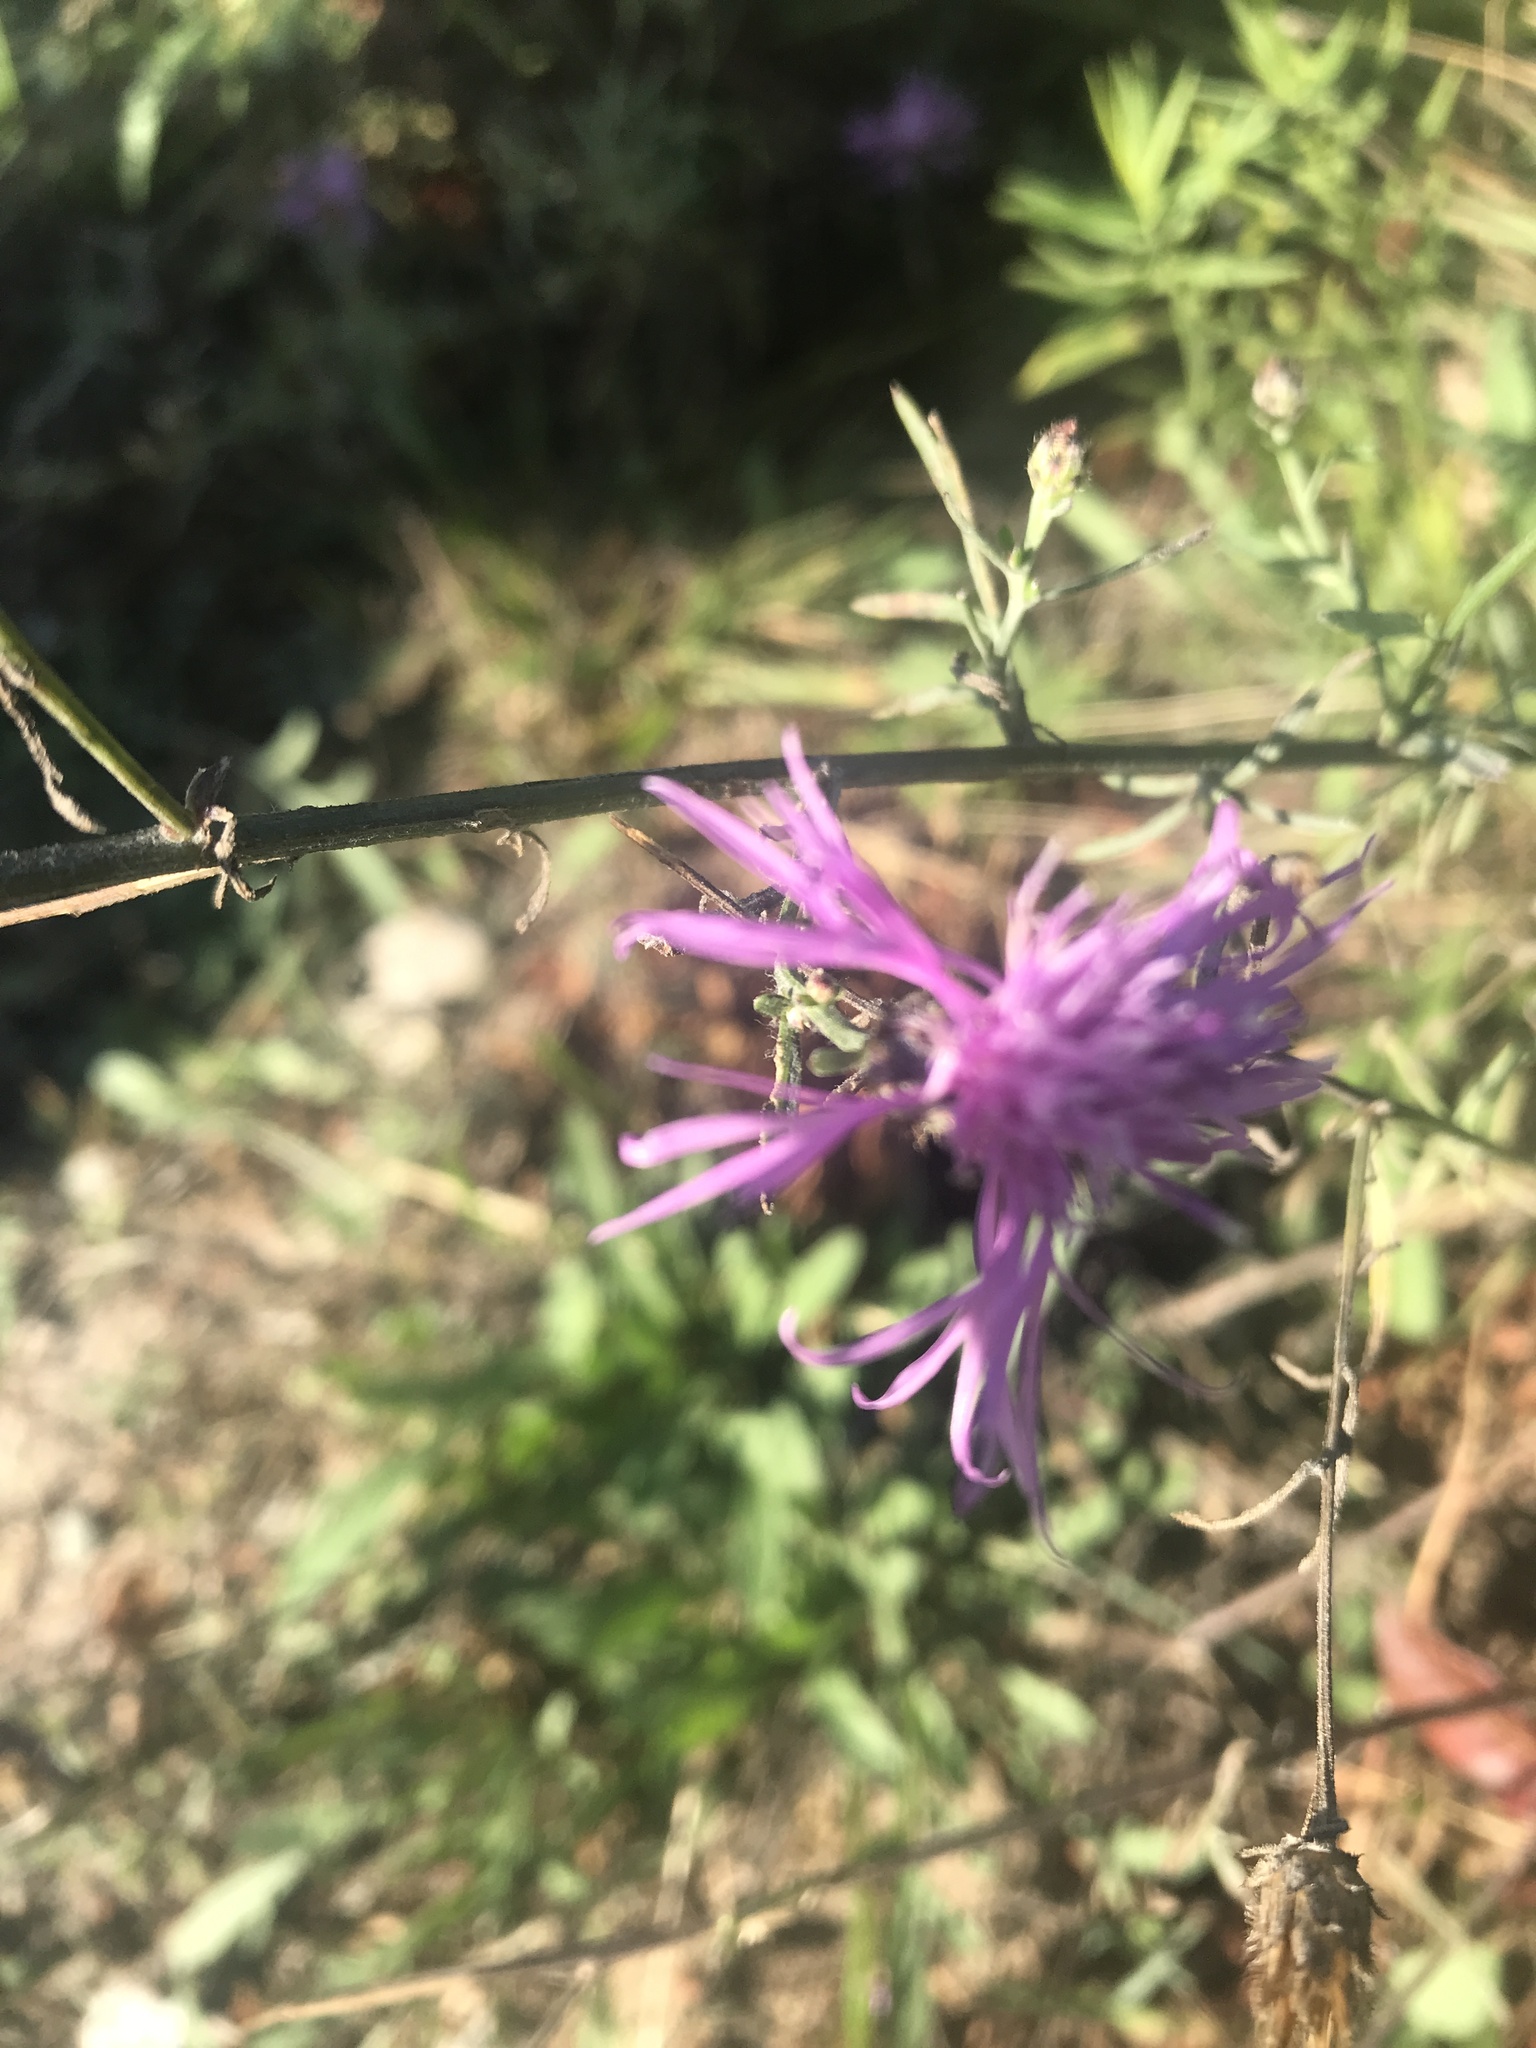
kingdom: Plantae
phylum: Tracheophyta
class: Magnoliopsida
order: Asterales
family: Asteraceae
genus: Centaurea
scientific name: Centaurea stoebe
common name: Spotted knapweed
